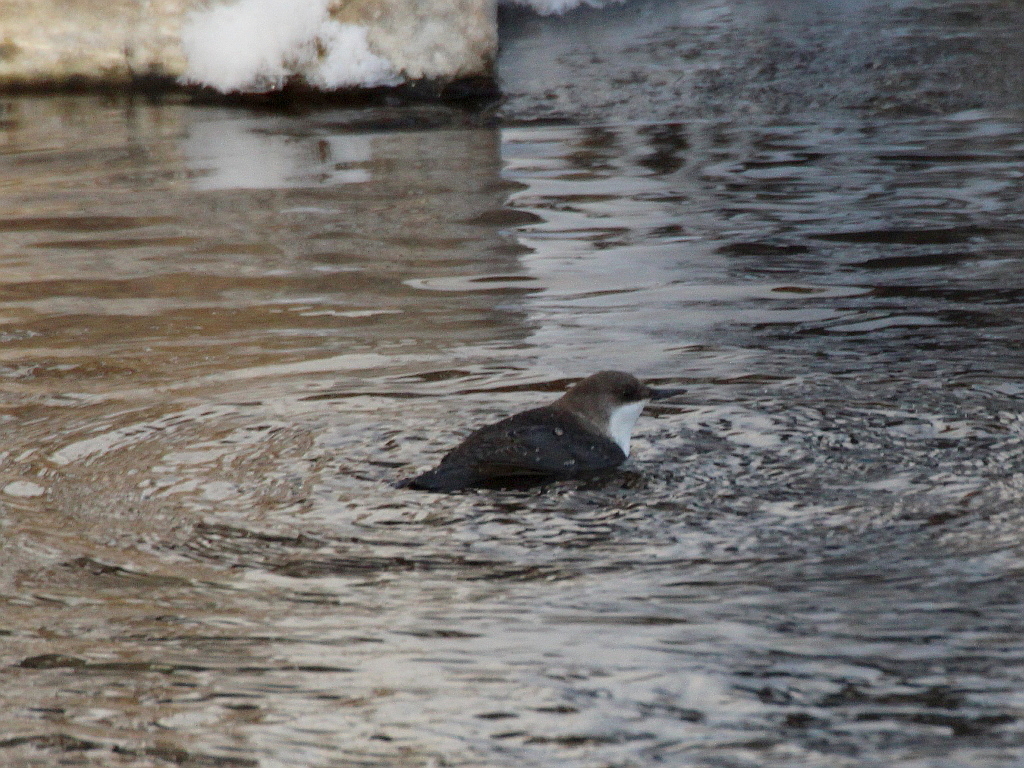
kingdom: Animalia
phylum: Chordata
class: Aves
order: Passeriformes
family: Cinclidae
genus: Cinclus
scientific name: Cinclus cinclus
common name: White-throated dipper
